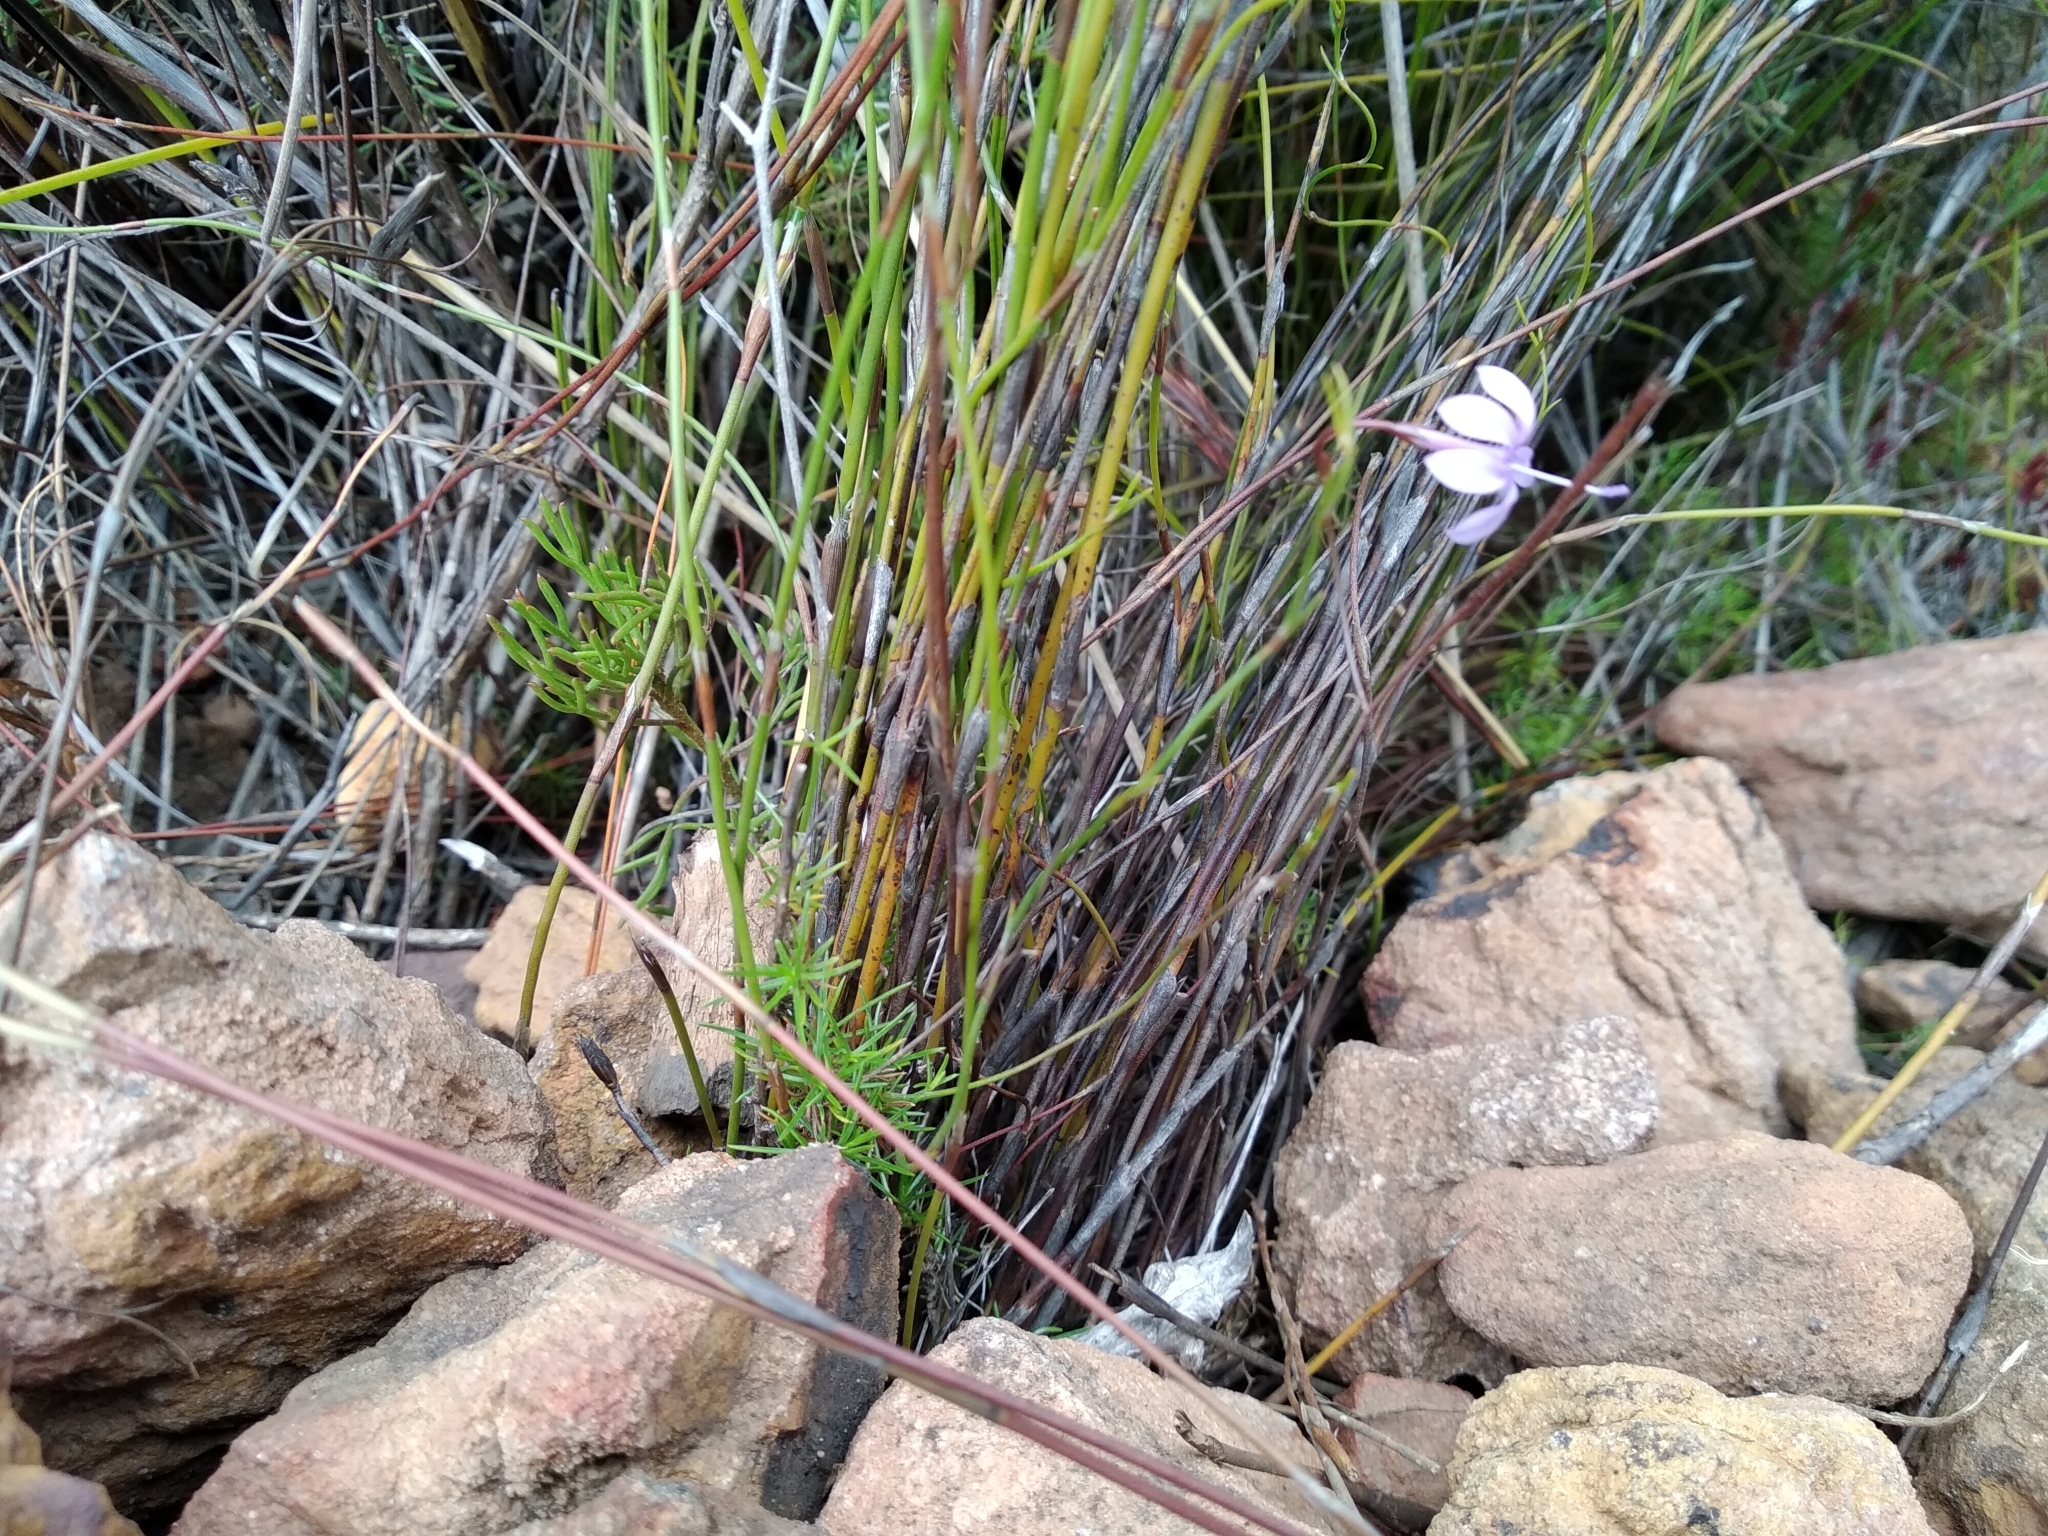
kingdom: Plantae
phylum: Tracheophyta
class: Magnoliopsida
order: Asterales
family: Campanulaceae
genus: Prismatocarpus
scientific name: Prismatocarpus diffusus
